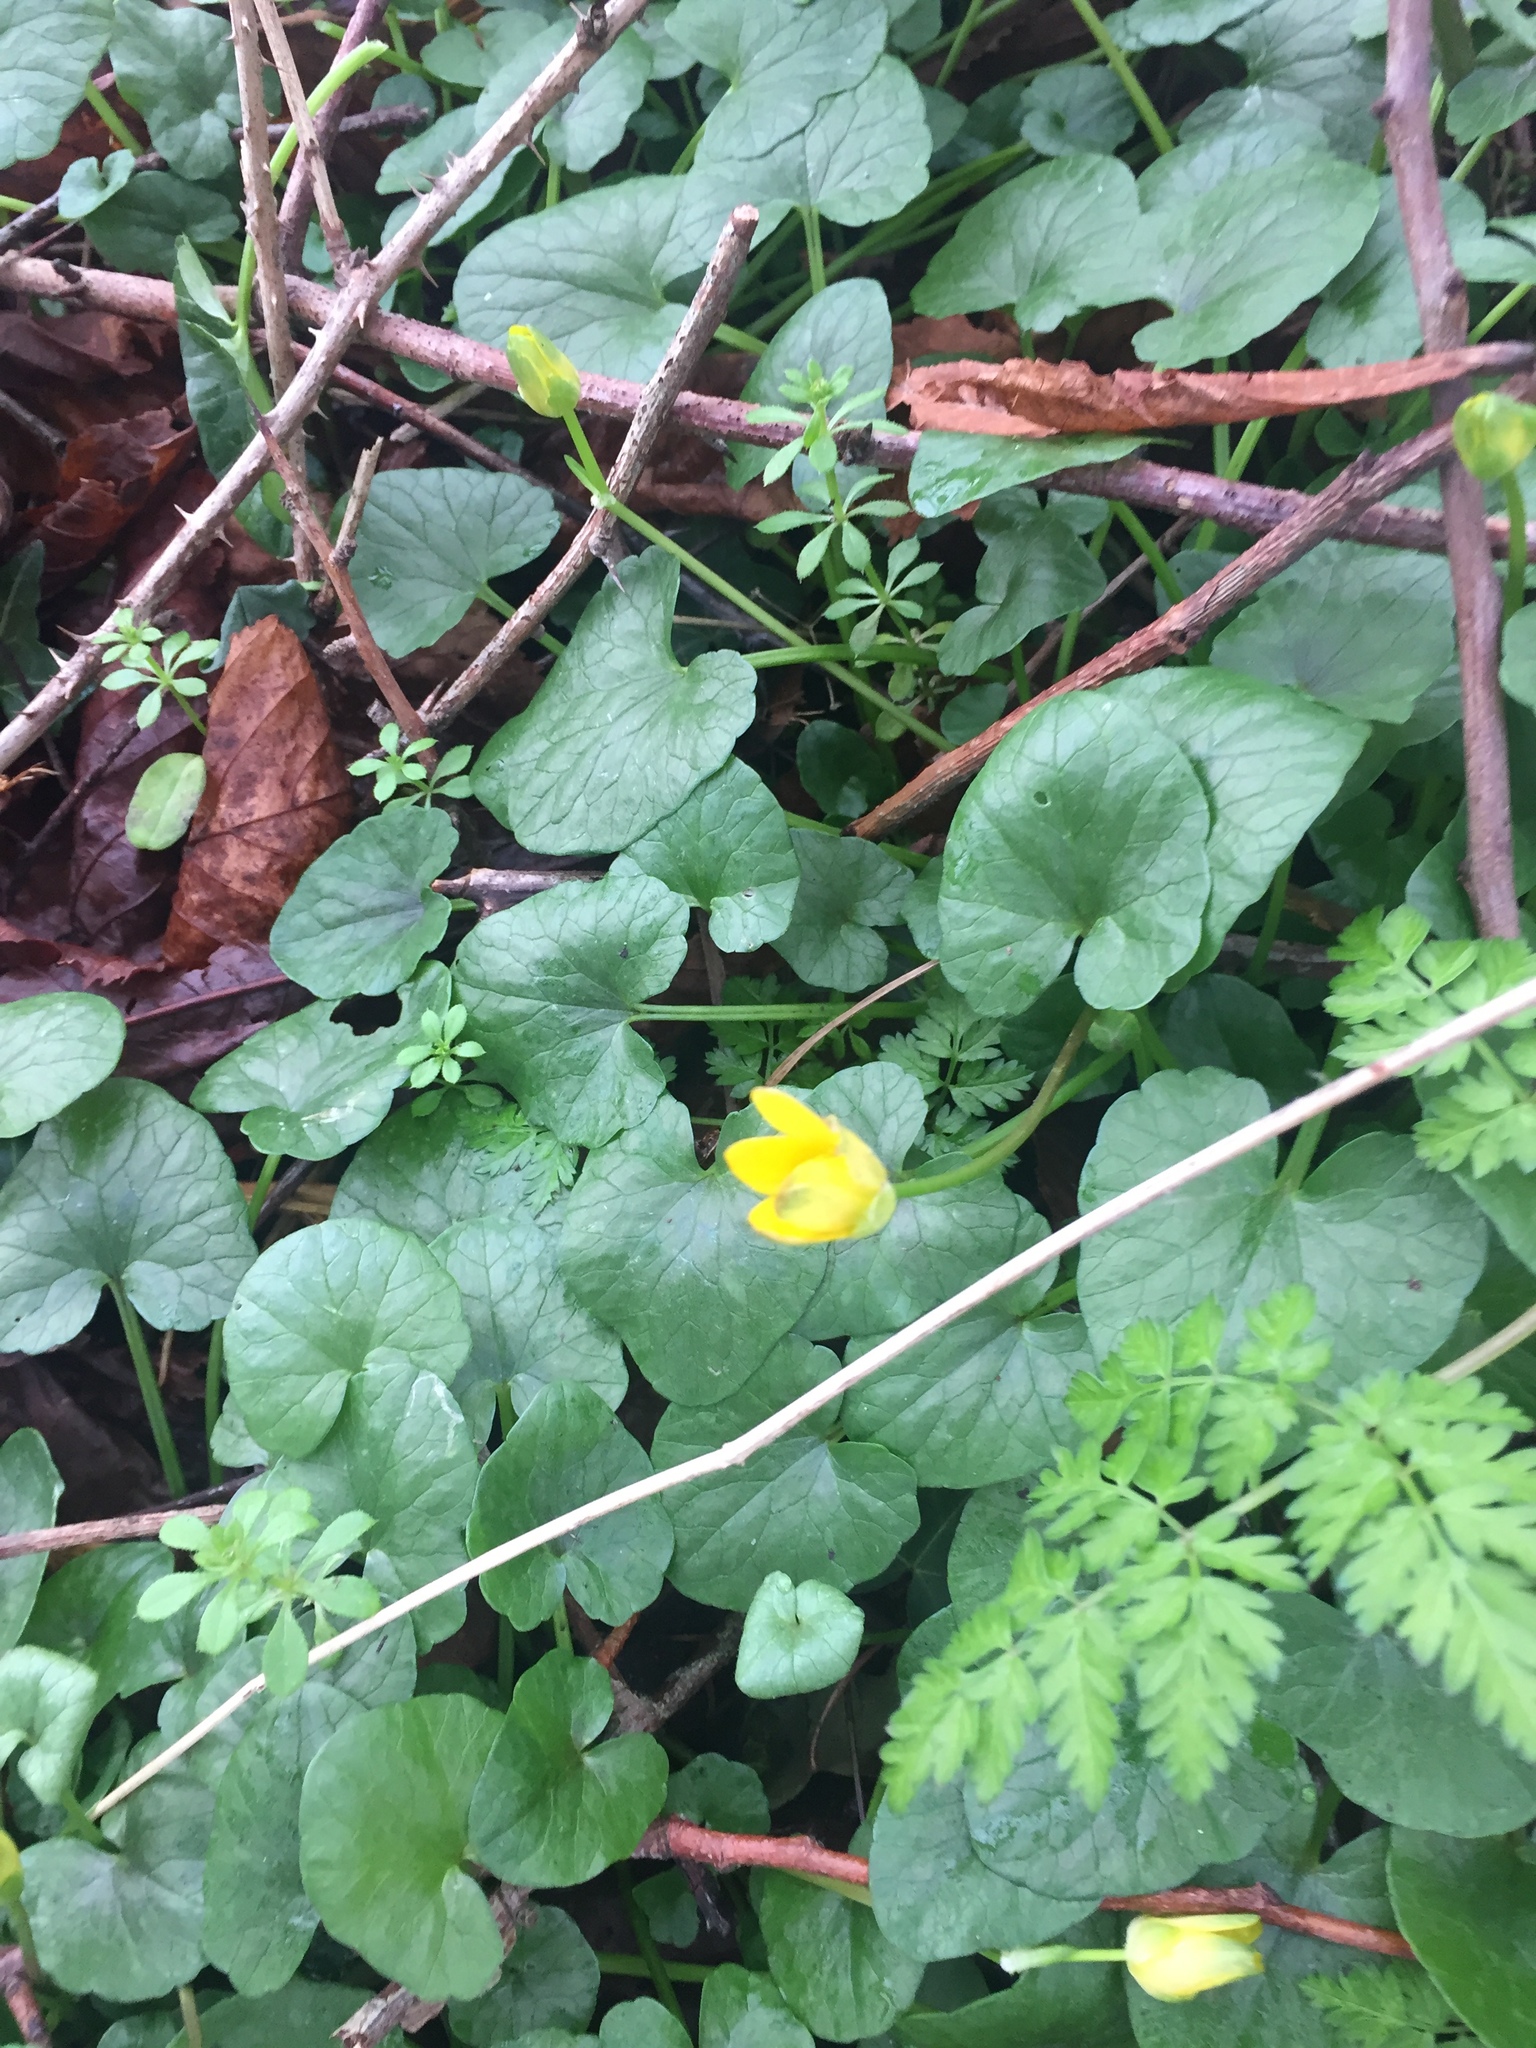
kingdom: Plantae
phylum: Tracheophyta
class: Magnoliopsida
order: Ranunculales
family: Ranunculaceae
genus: Ficaria
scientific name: Ficaria verna
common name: Lesser celandine
